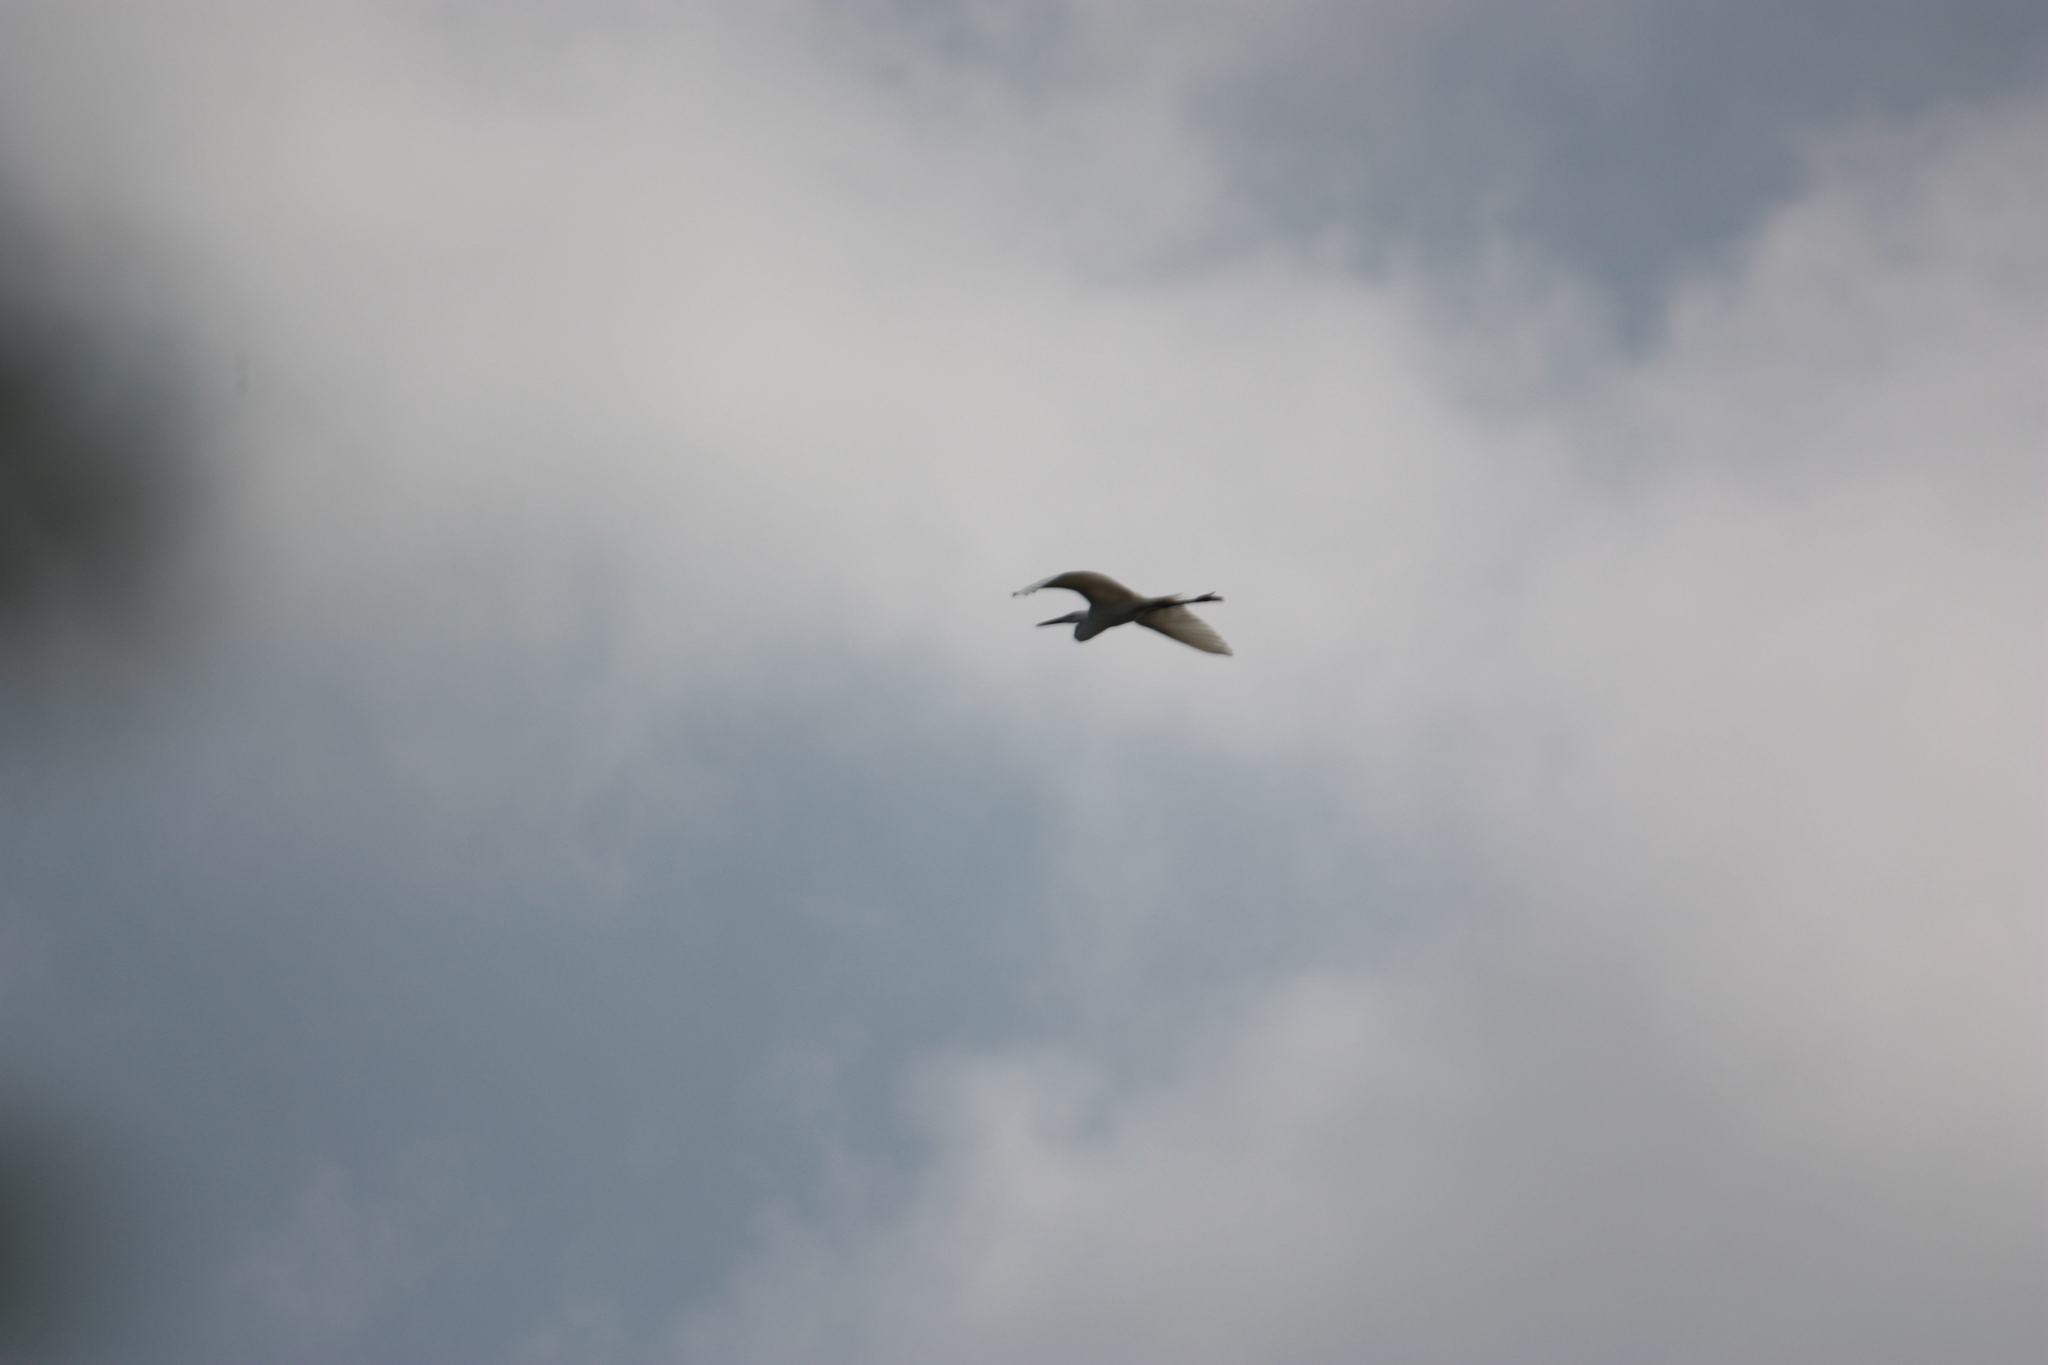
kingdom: Animalia
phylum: Chordata
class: Aves
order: Pelecaniformes
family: Ardeidae
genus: Ardea
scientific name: Ardea alba
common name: Great egret
